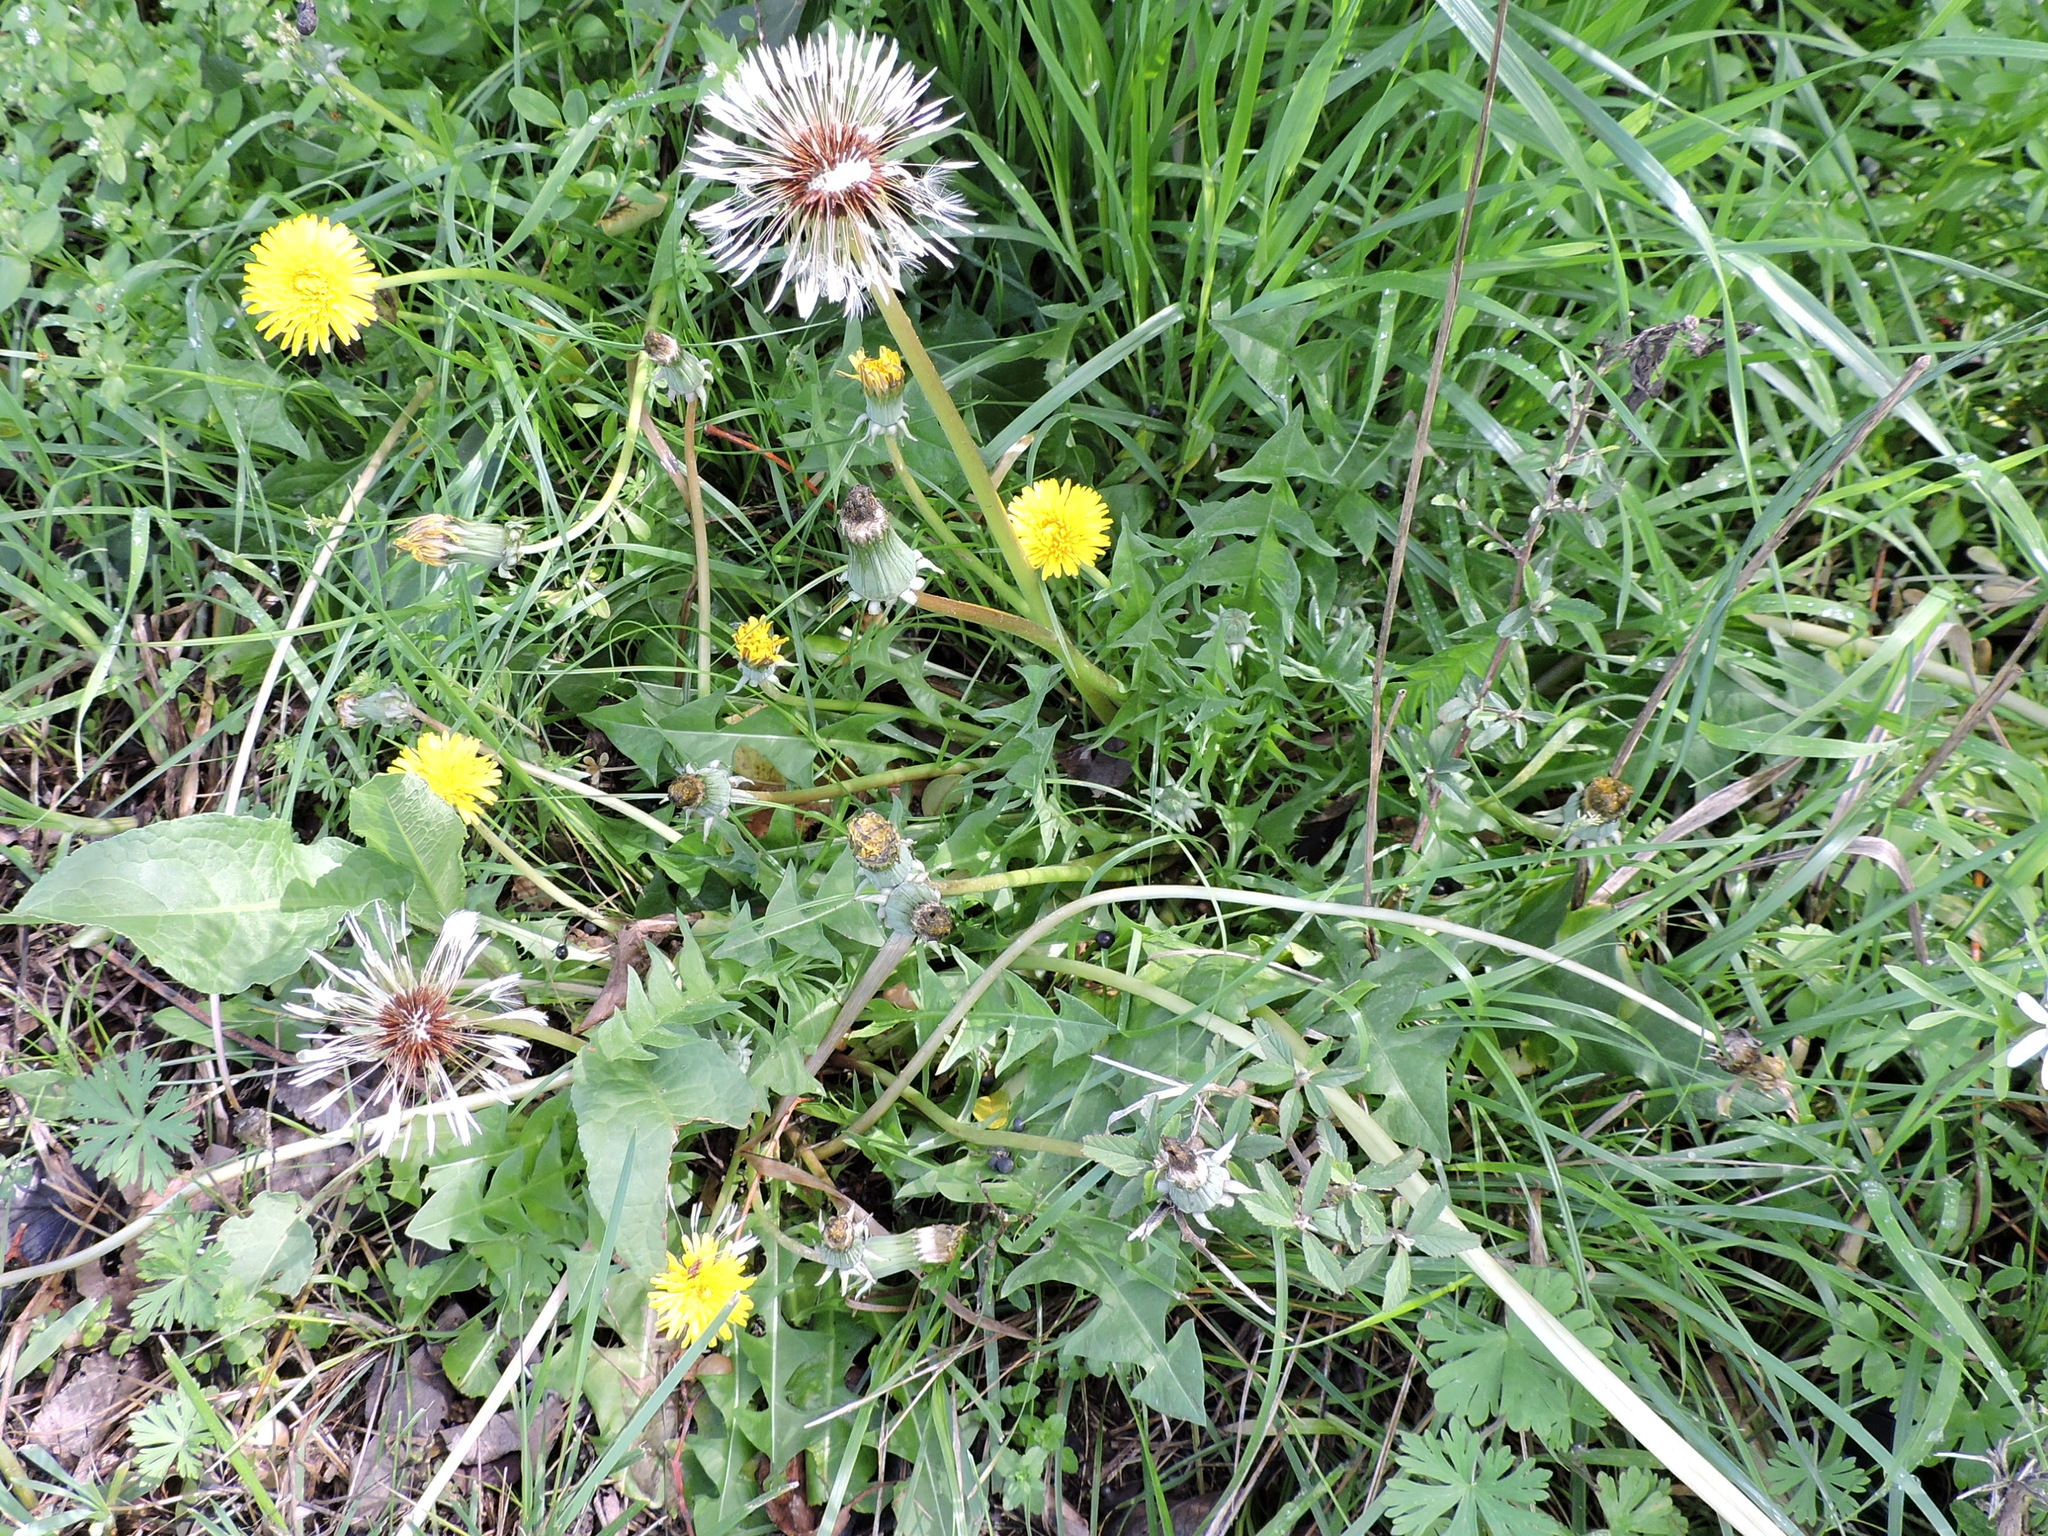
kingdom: Plantae
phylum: Tracheophyta
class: Magnoliopsida
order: Asterales
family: Asteraceae
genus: Taraxacum
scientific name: Taraxacum erythrospermum
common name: Rock dandelion
